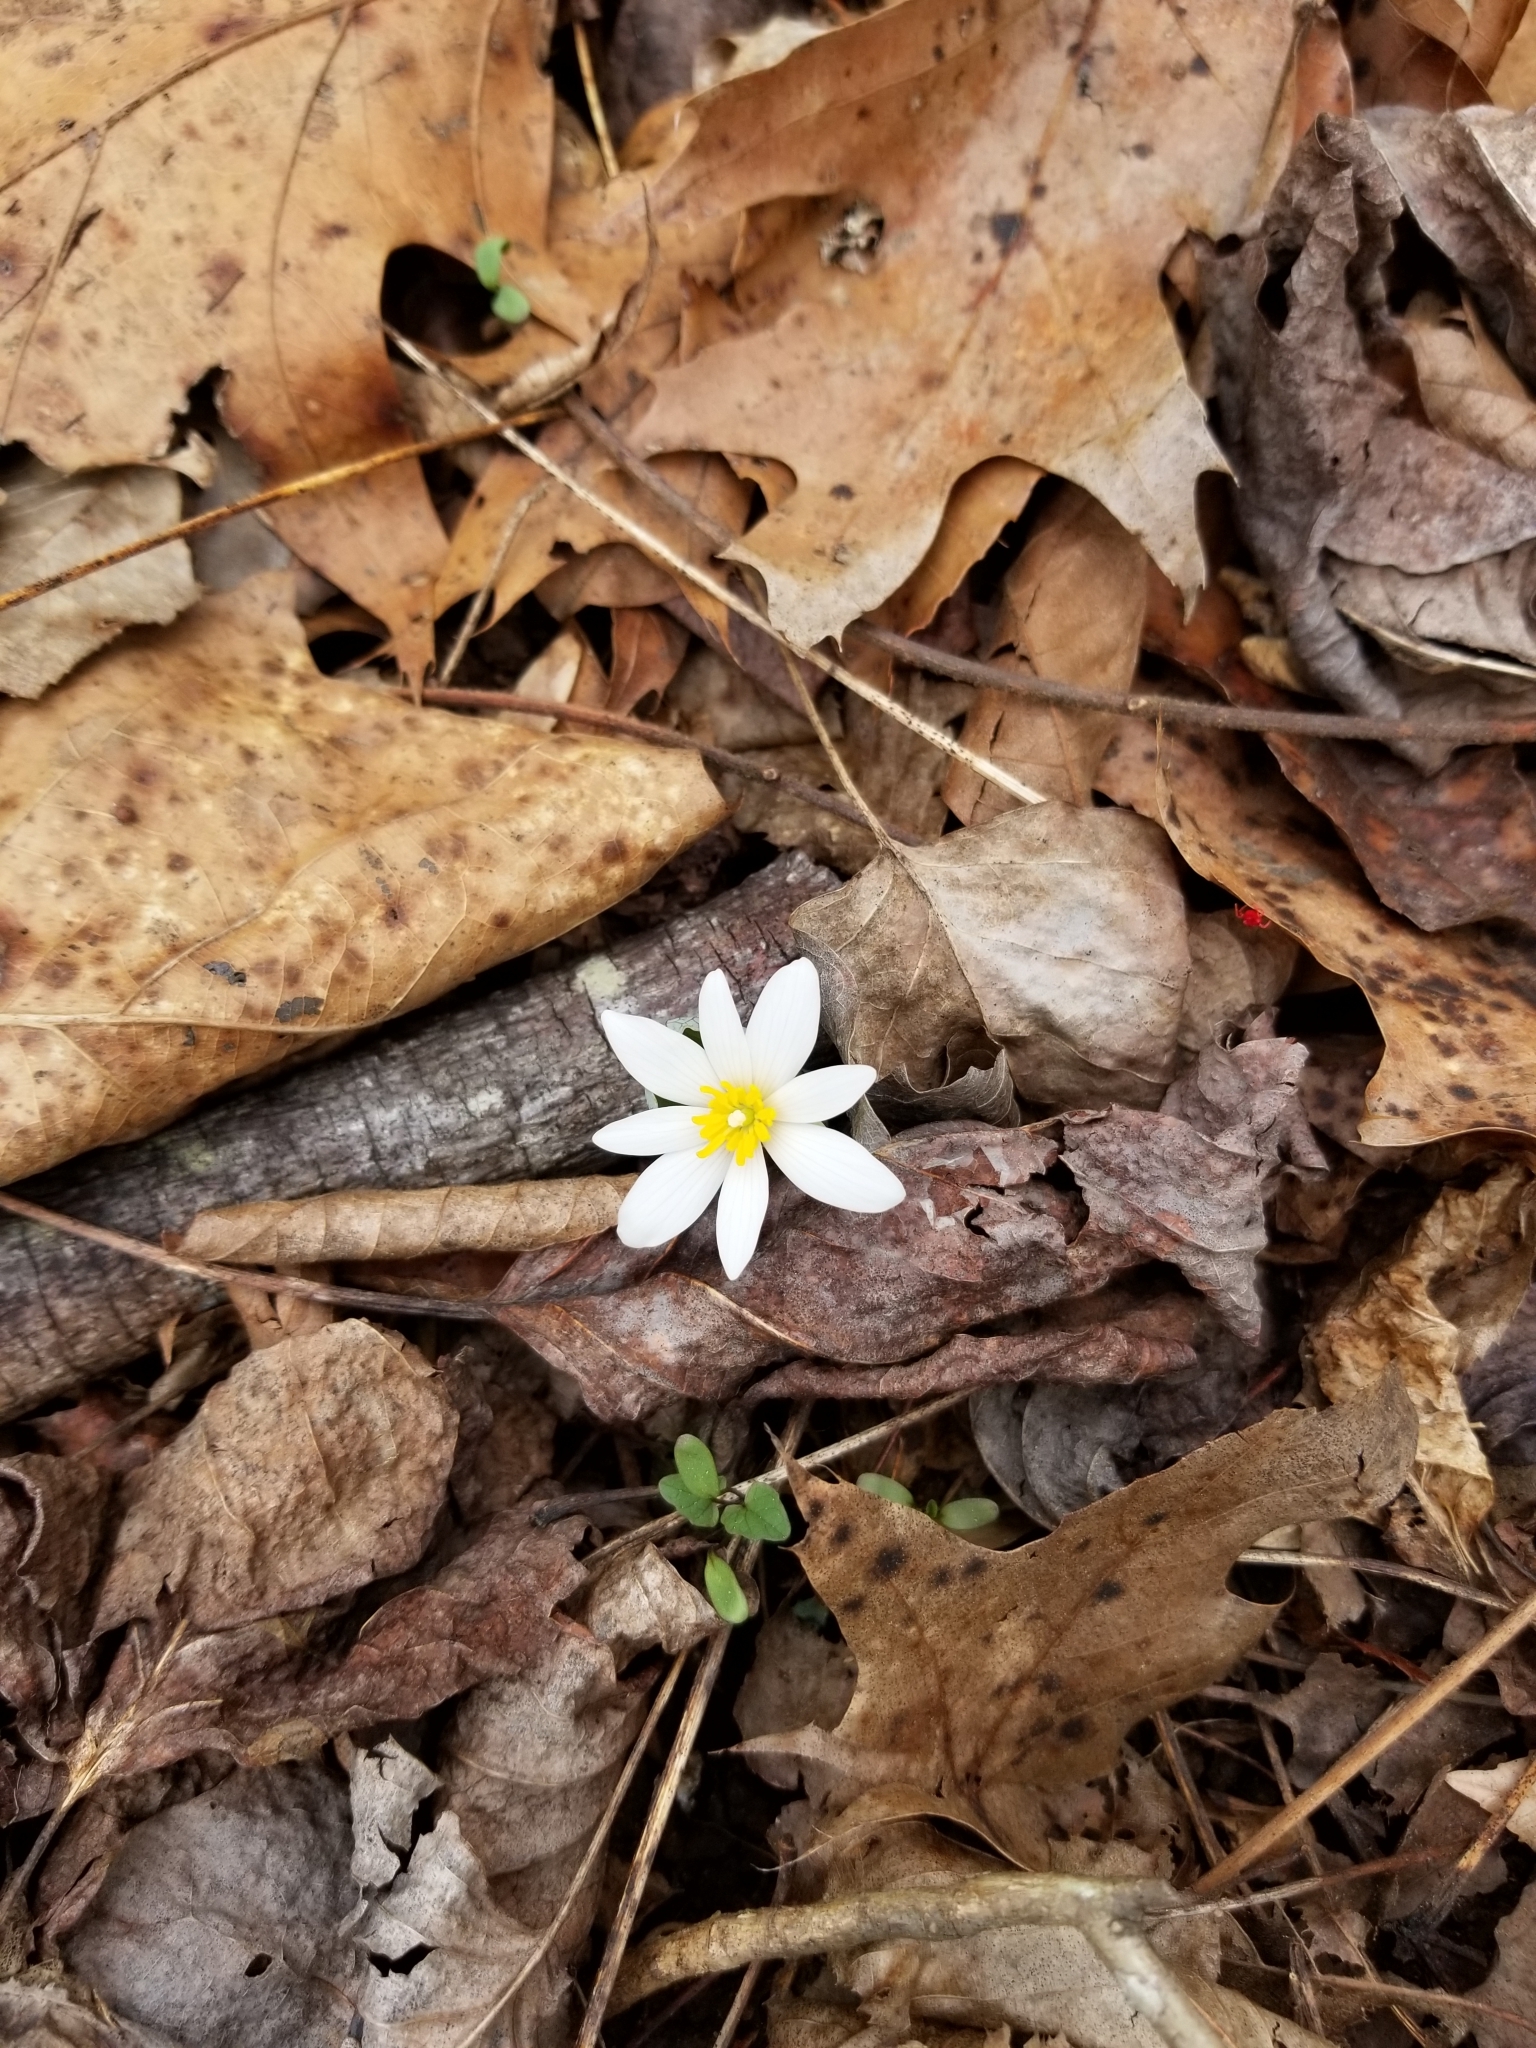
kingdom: Plantae
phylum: Tracheophyta
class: Magnoliopsida
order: Ranunculales
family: Papaveraceae
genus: Sanguinaria
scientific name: Sanguinaria canadensis
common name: Bloodroot
